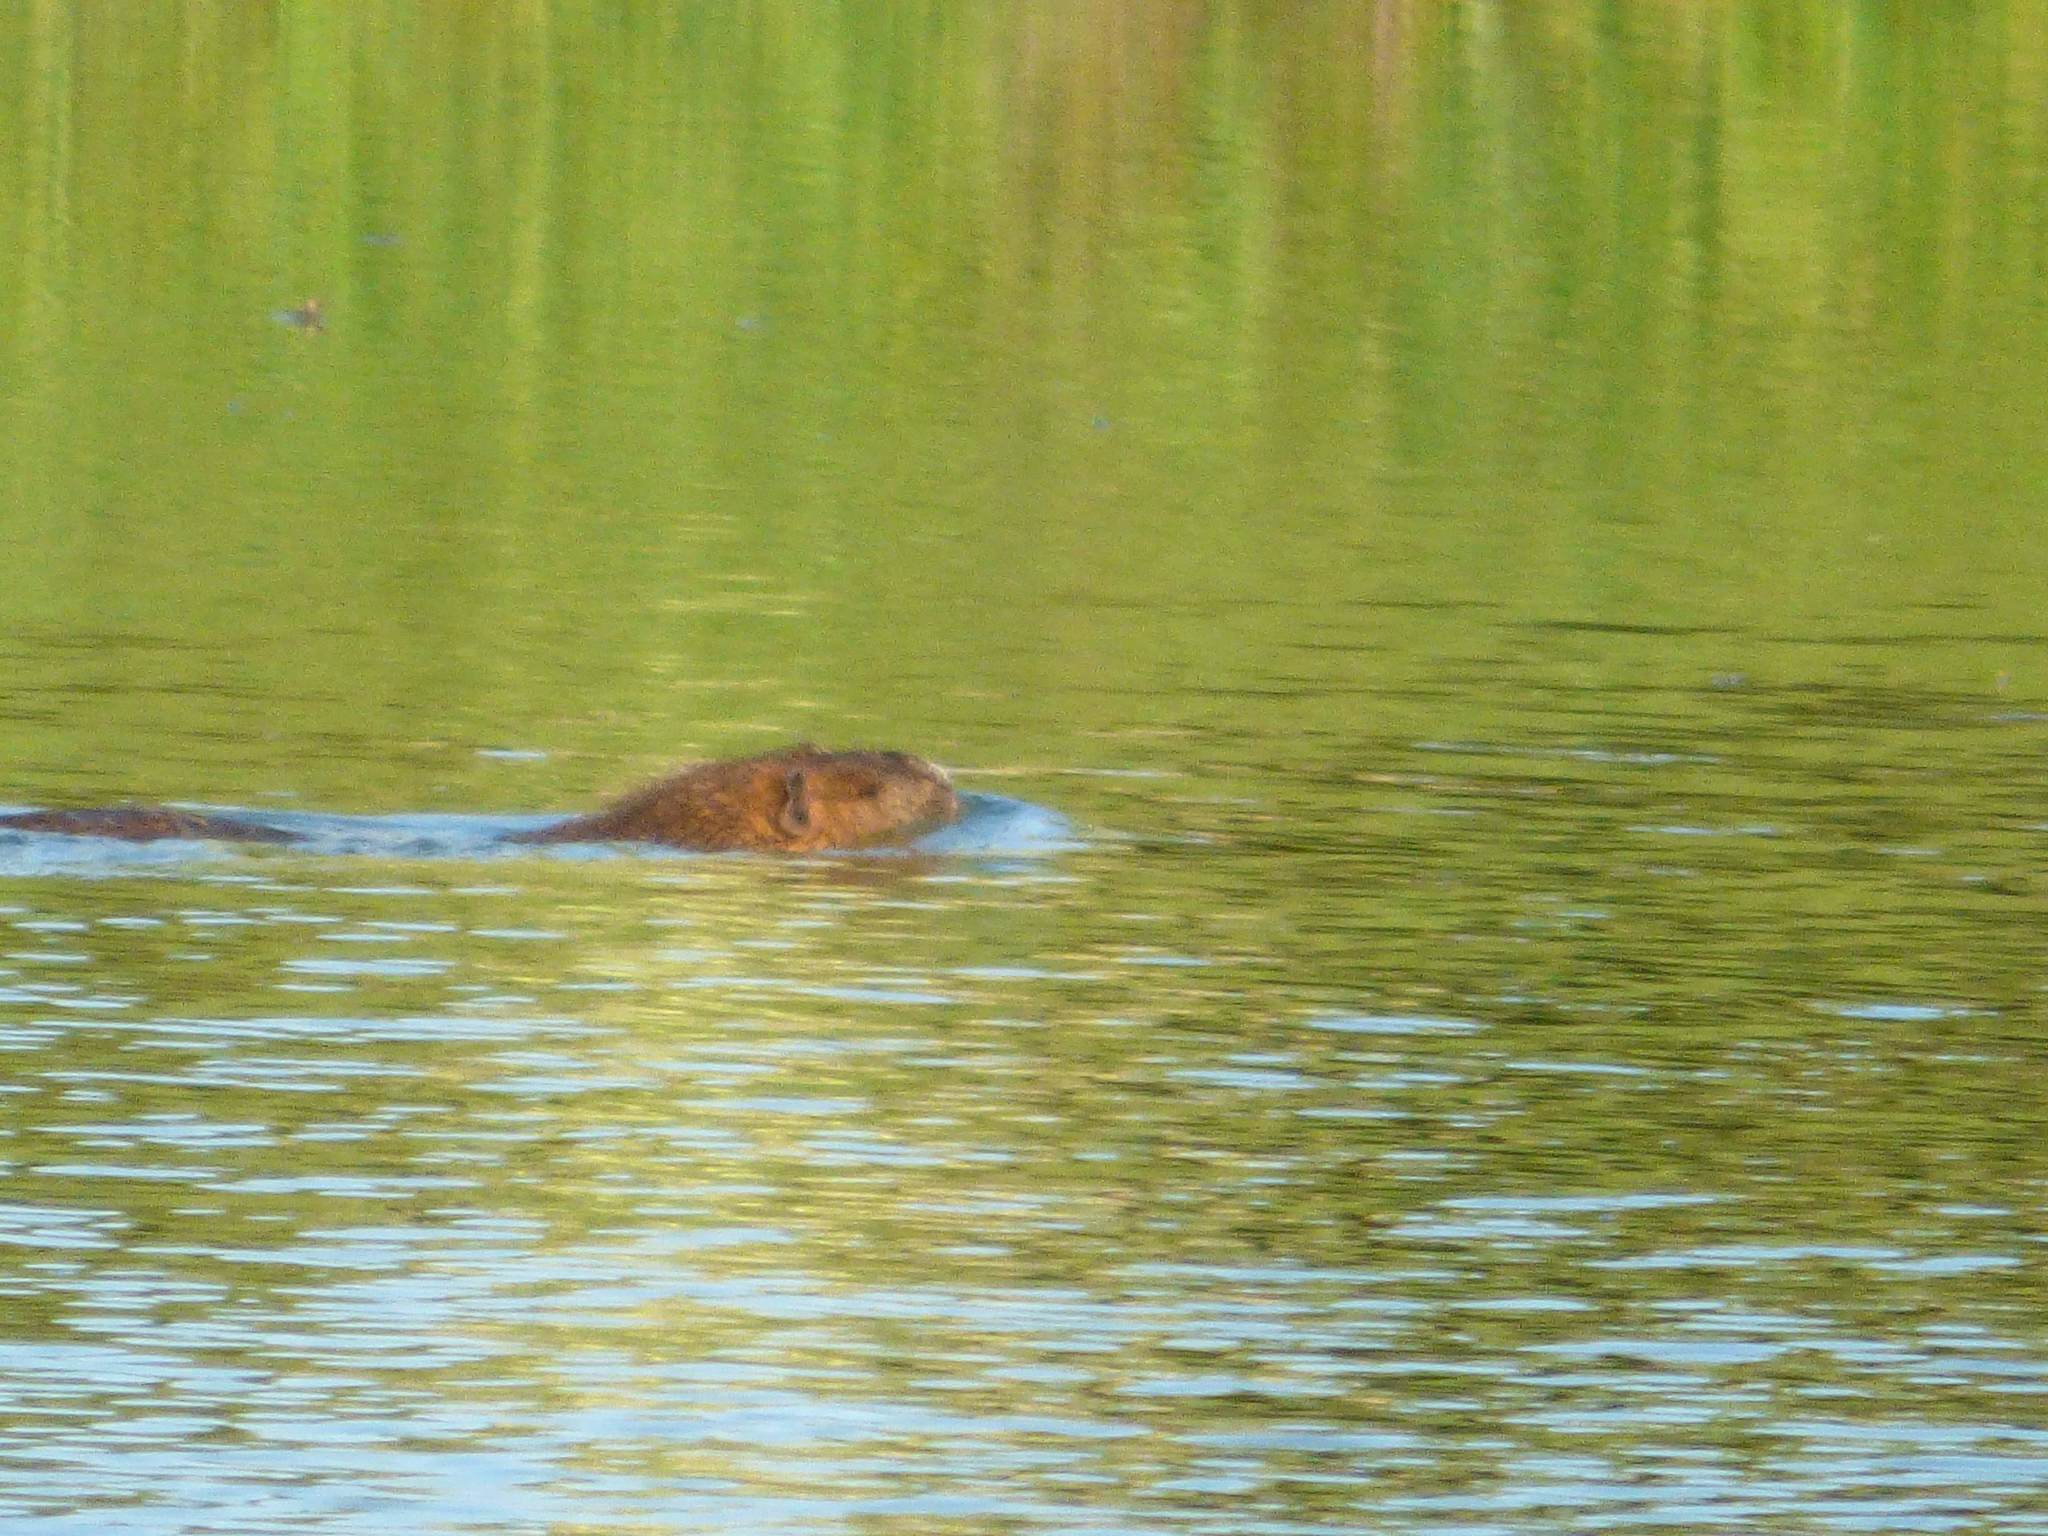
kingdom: Animalia
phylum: Chordata
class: Mammalia
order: Rodentia
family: Myocastoridae
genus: Myocastor
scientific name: Myocastor coypus
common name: Coypu
